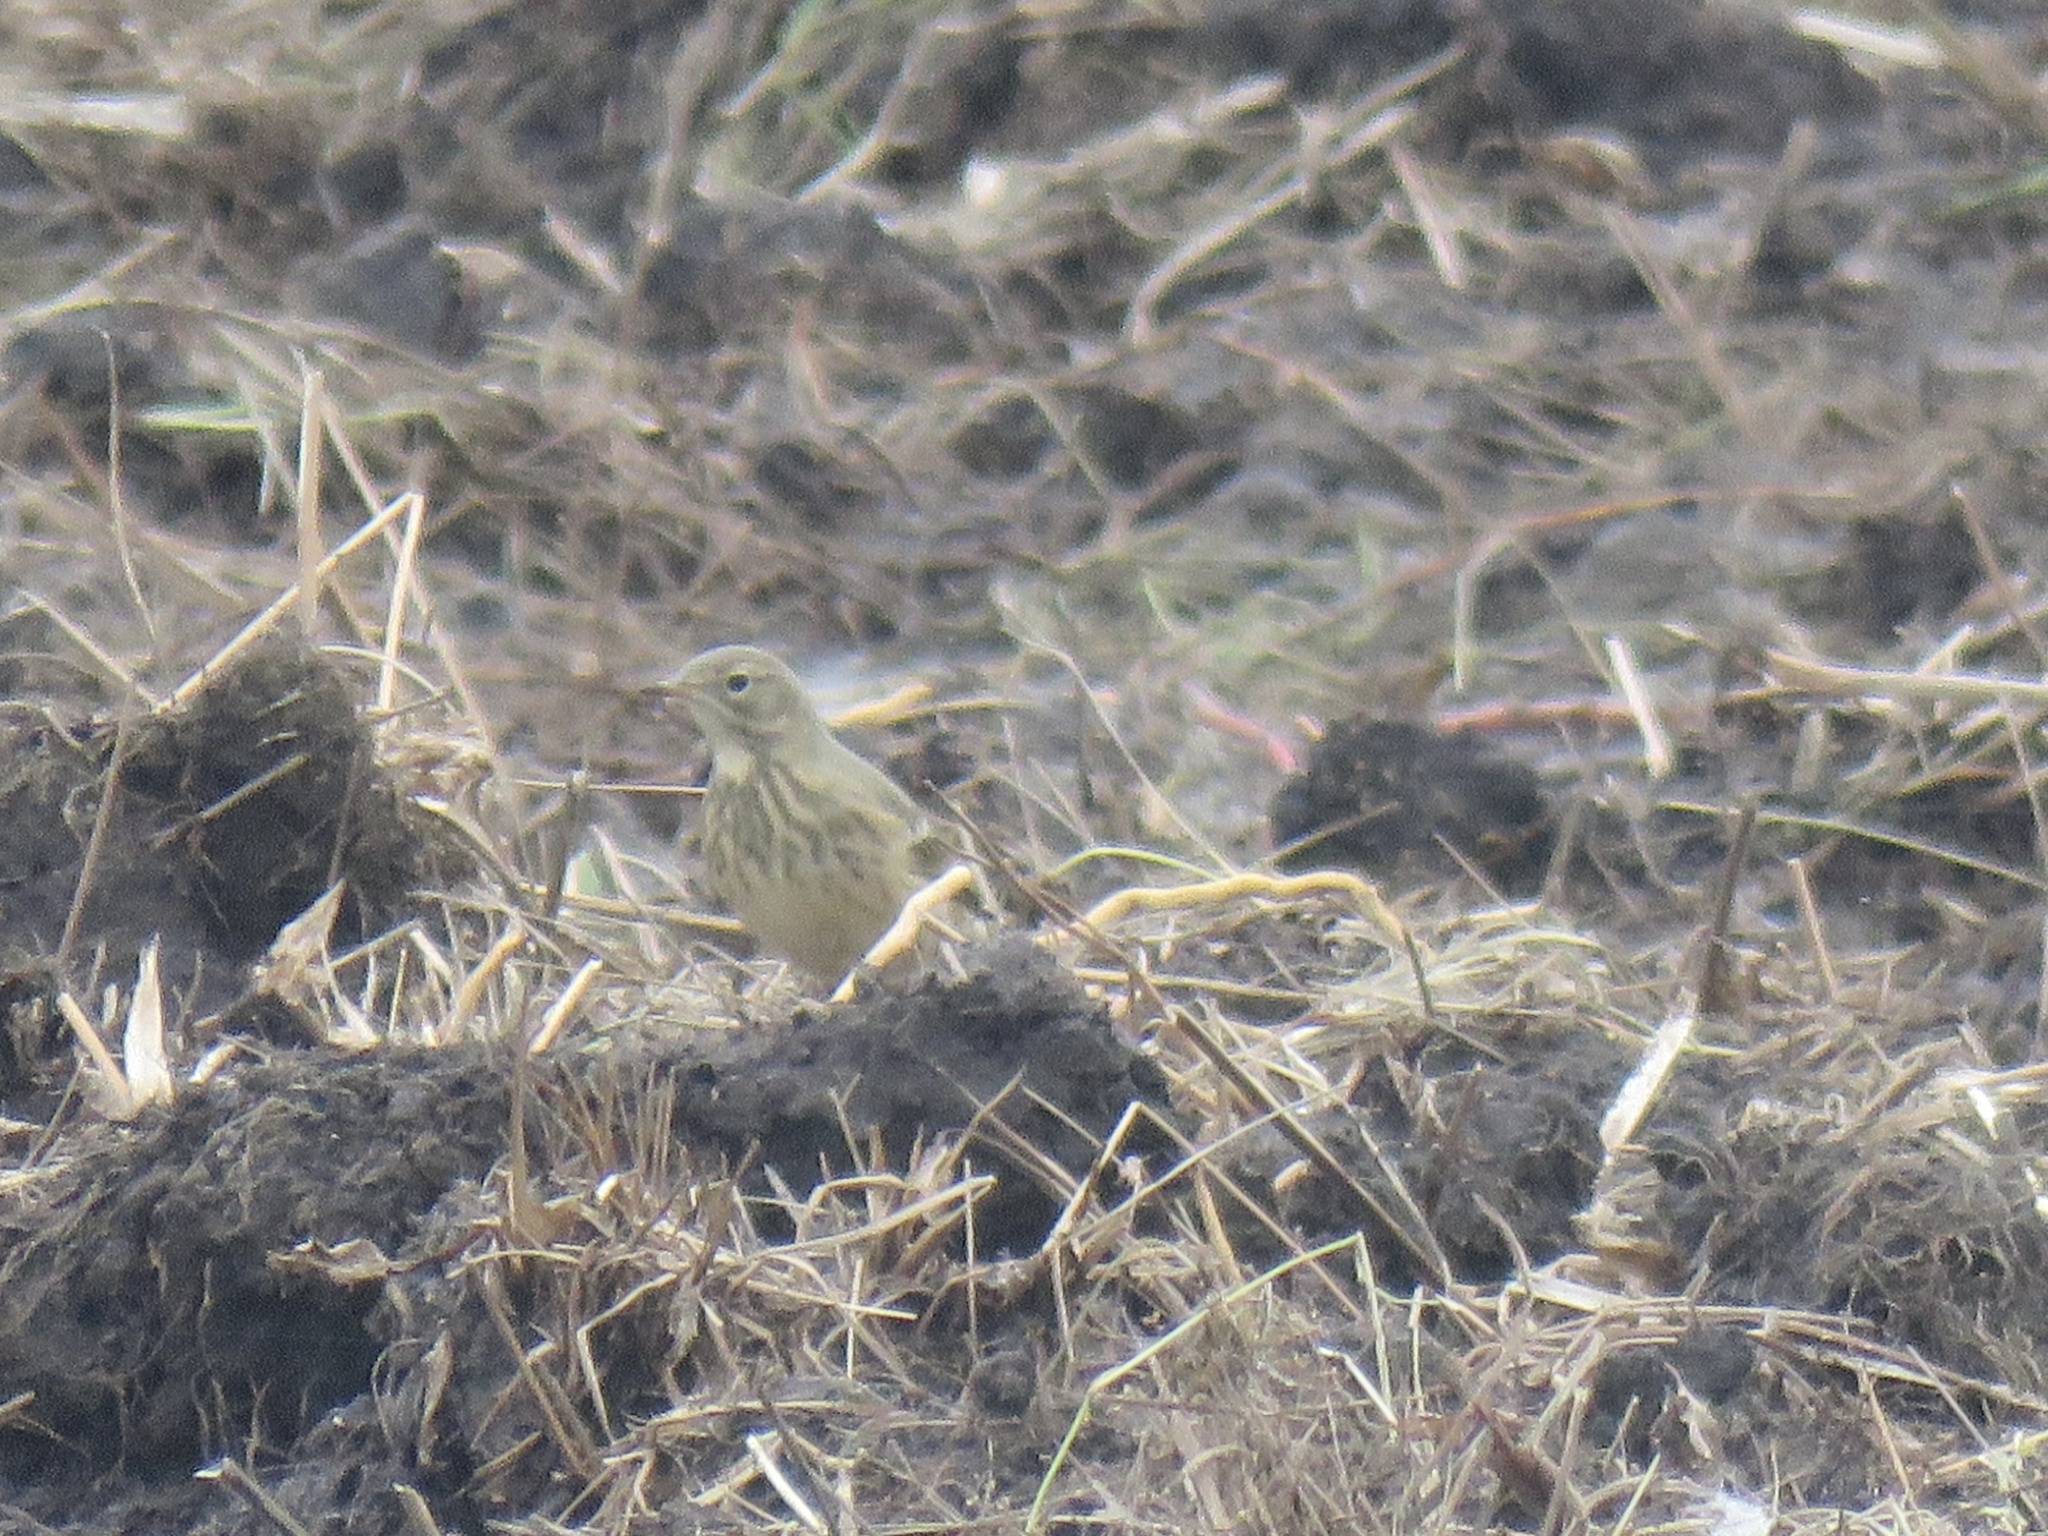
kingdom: Animalia
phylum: Chordata
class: Aves
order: Passeriformes
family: Motacillidae
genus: Anthus
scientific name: Anthus rubescens
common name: Buff-bellied pipit
